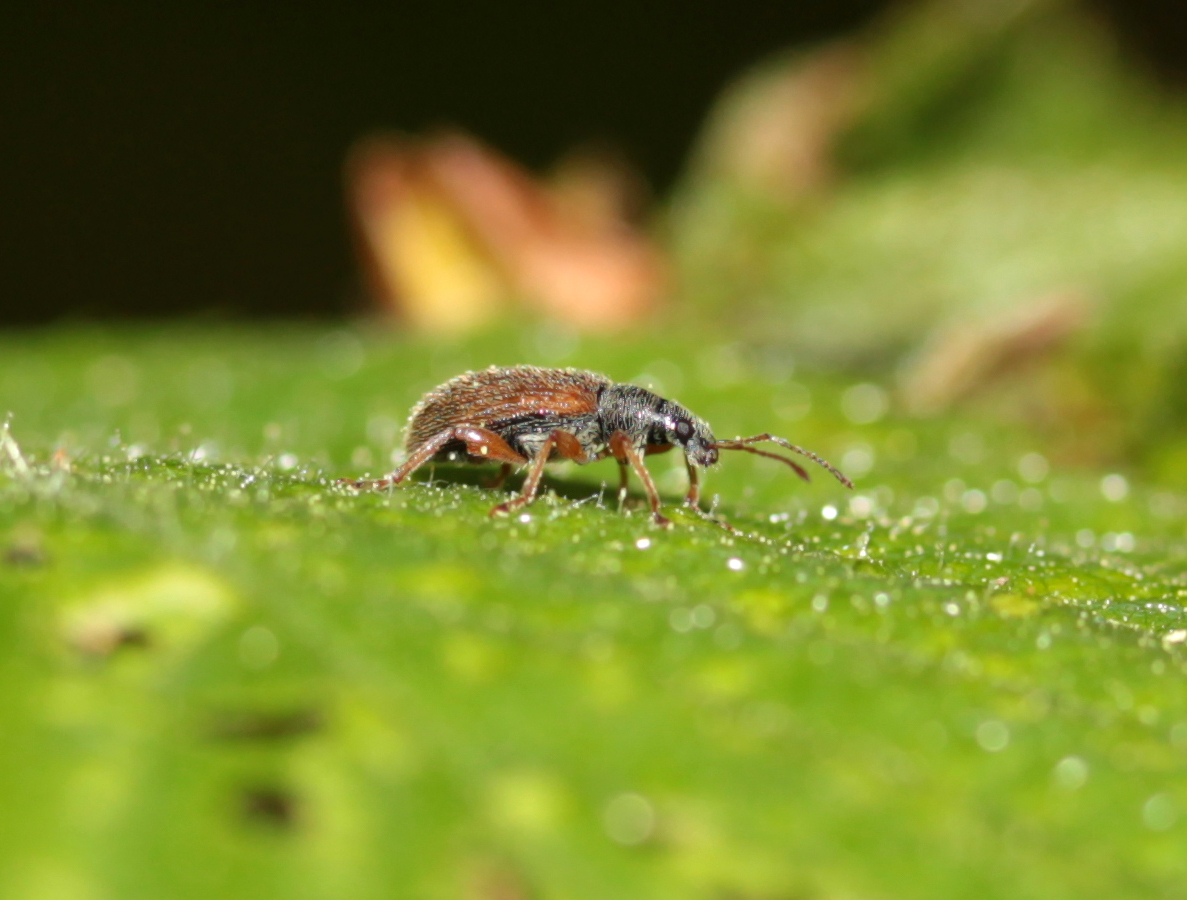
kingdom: Animalia
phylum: Arthropoda
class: Insecta
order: Coleoptera
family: Curculionidae
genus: Phyllobius
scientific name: Phyllobius oblongus
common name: Brown leaf weevil
